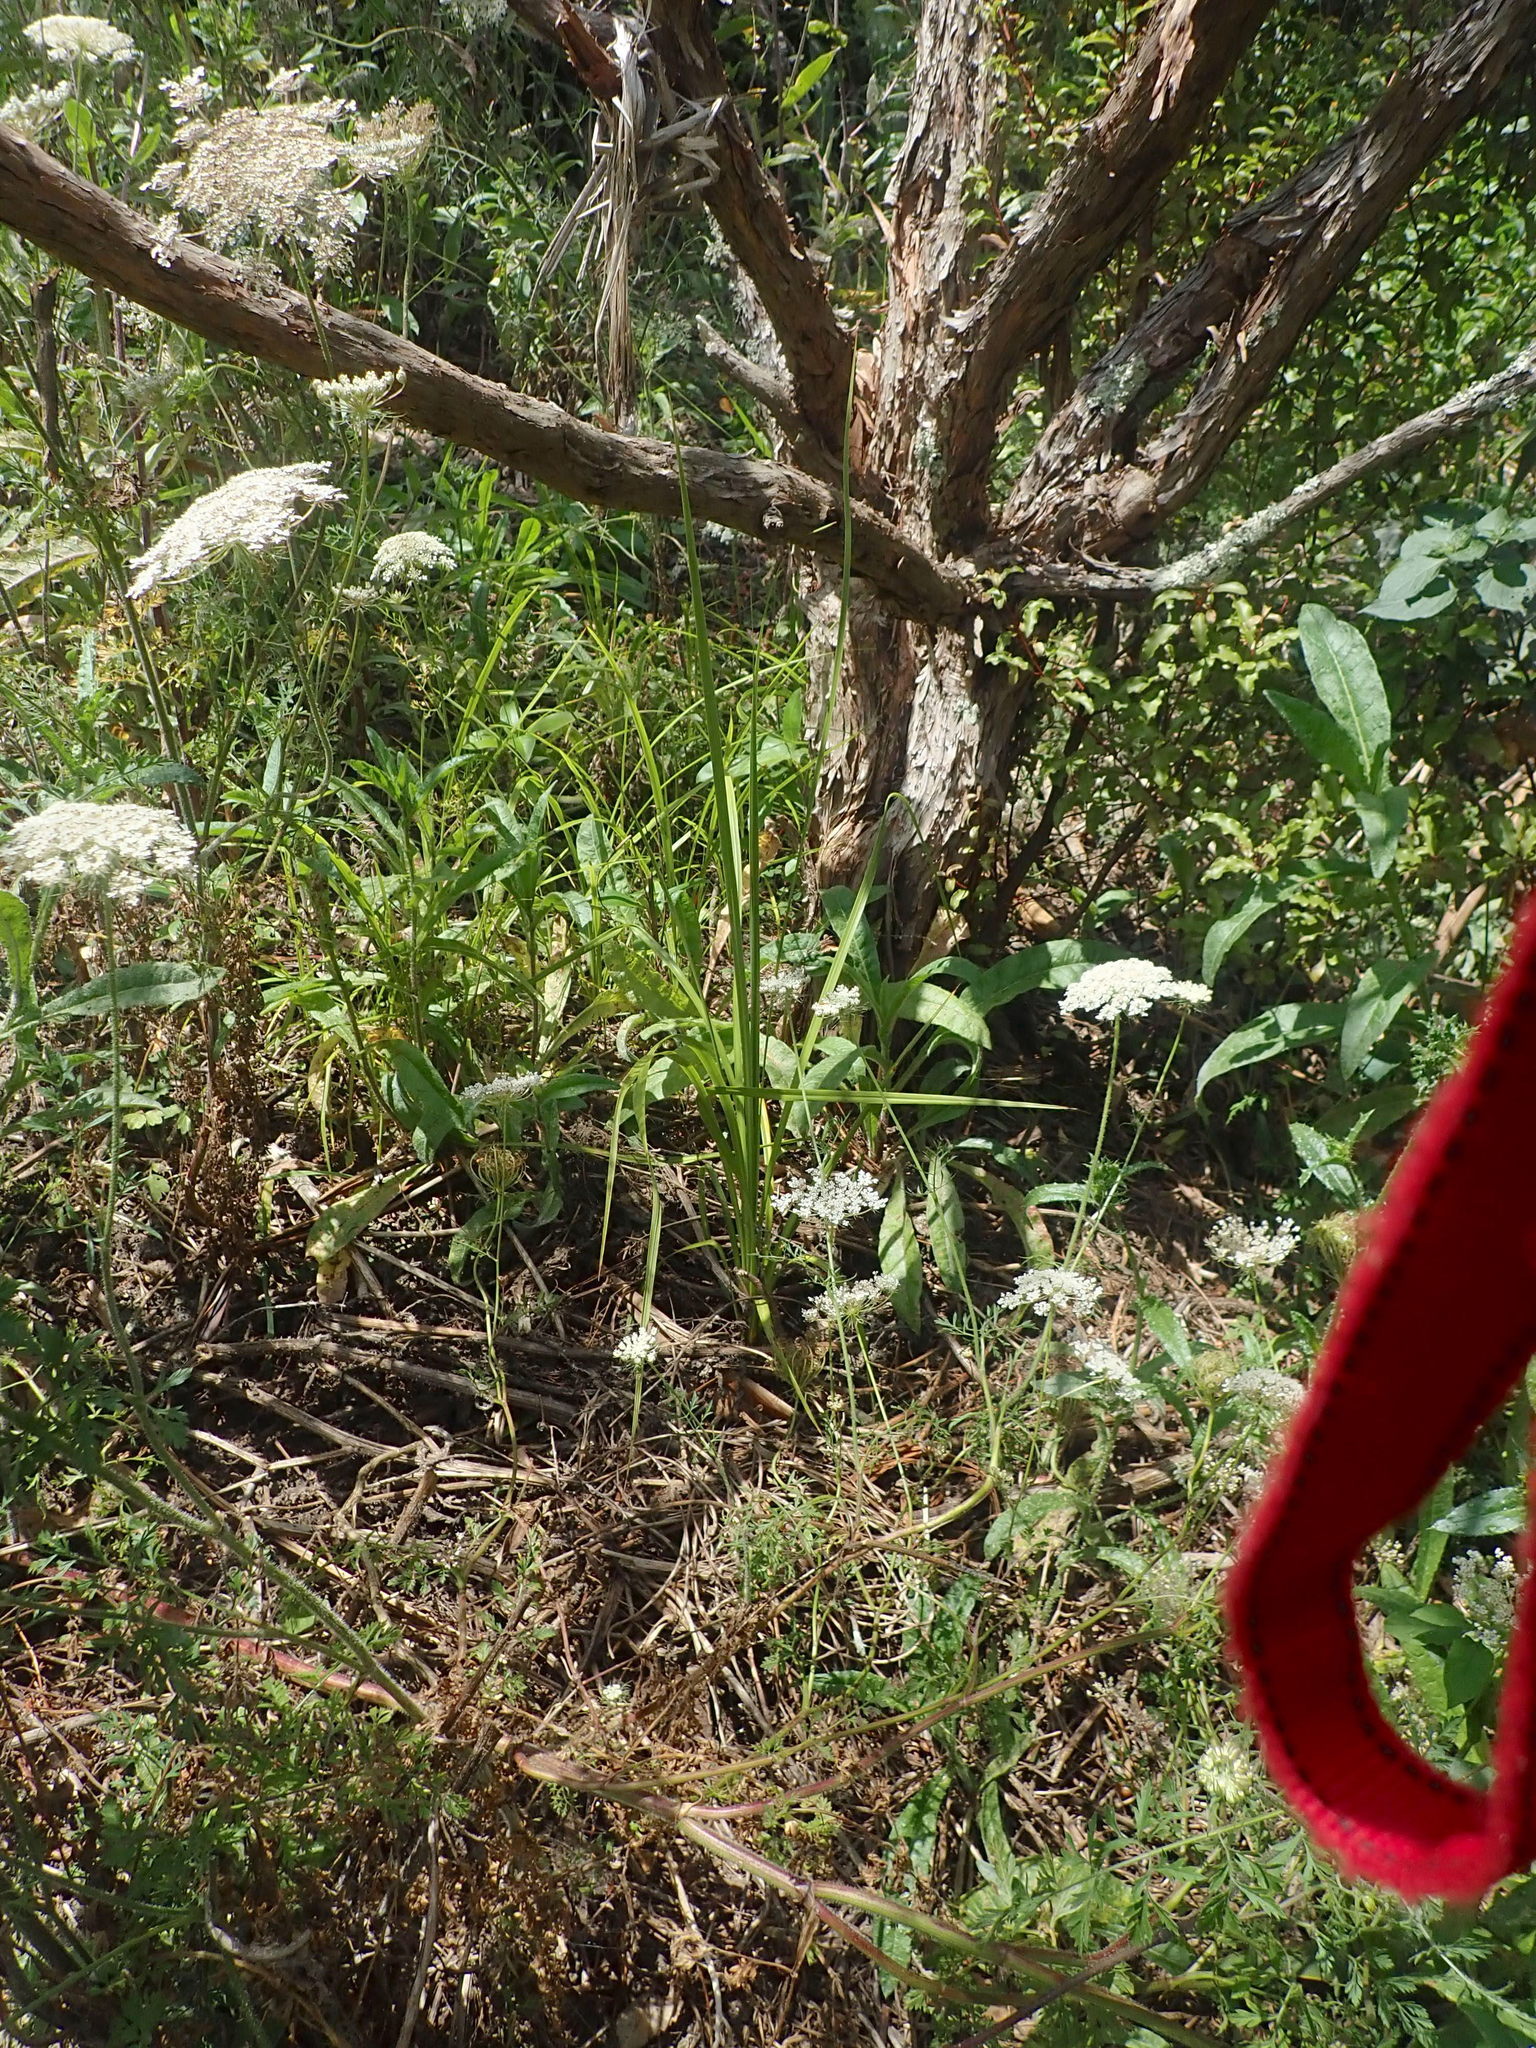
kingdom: Plantae
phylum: Tracheophyta
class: Magnoliopsida
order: Apiales
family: Apiaceae
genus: Daucus
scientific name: Daucus carota
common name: Wild carrot
